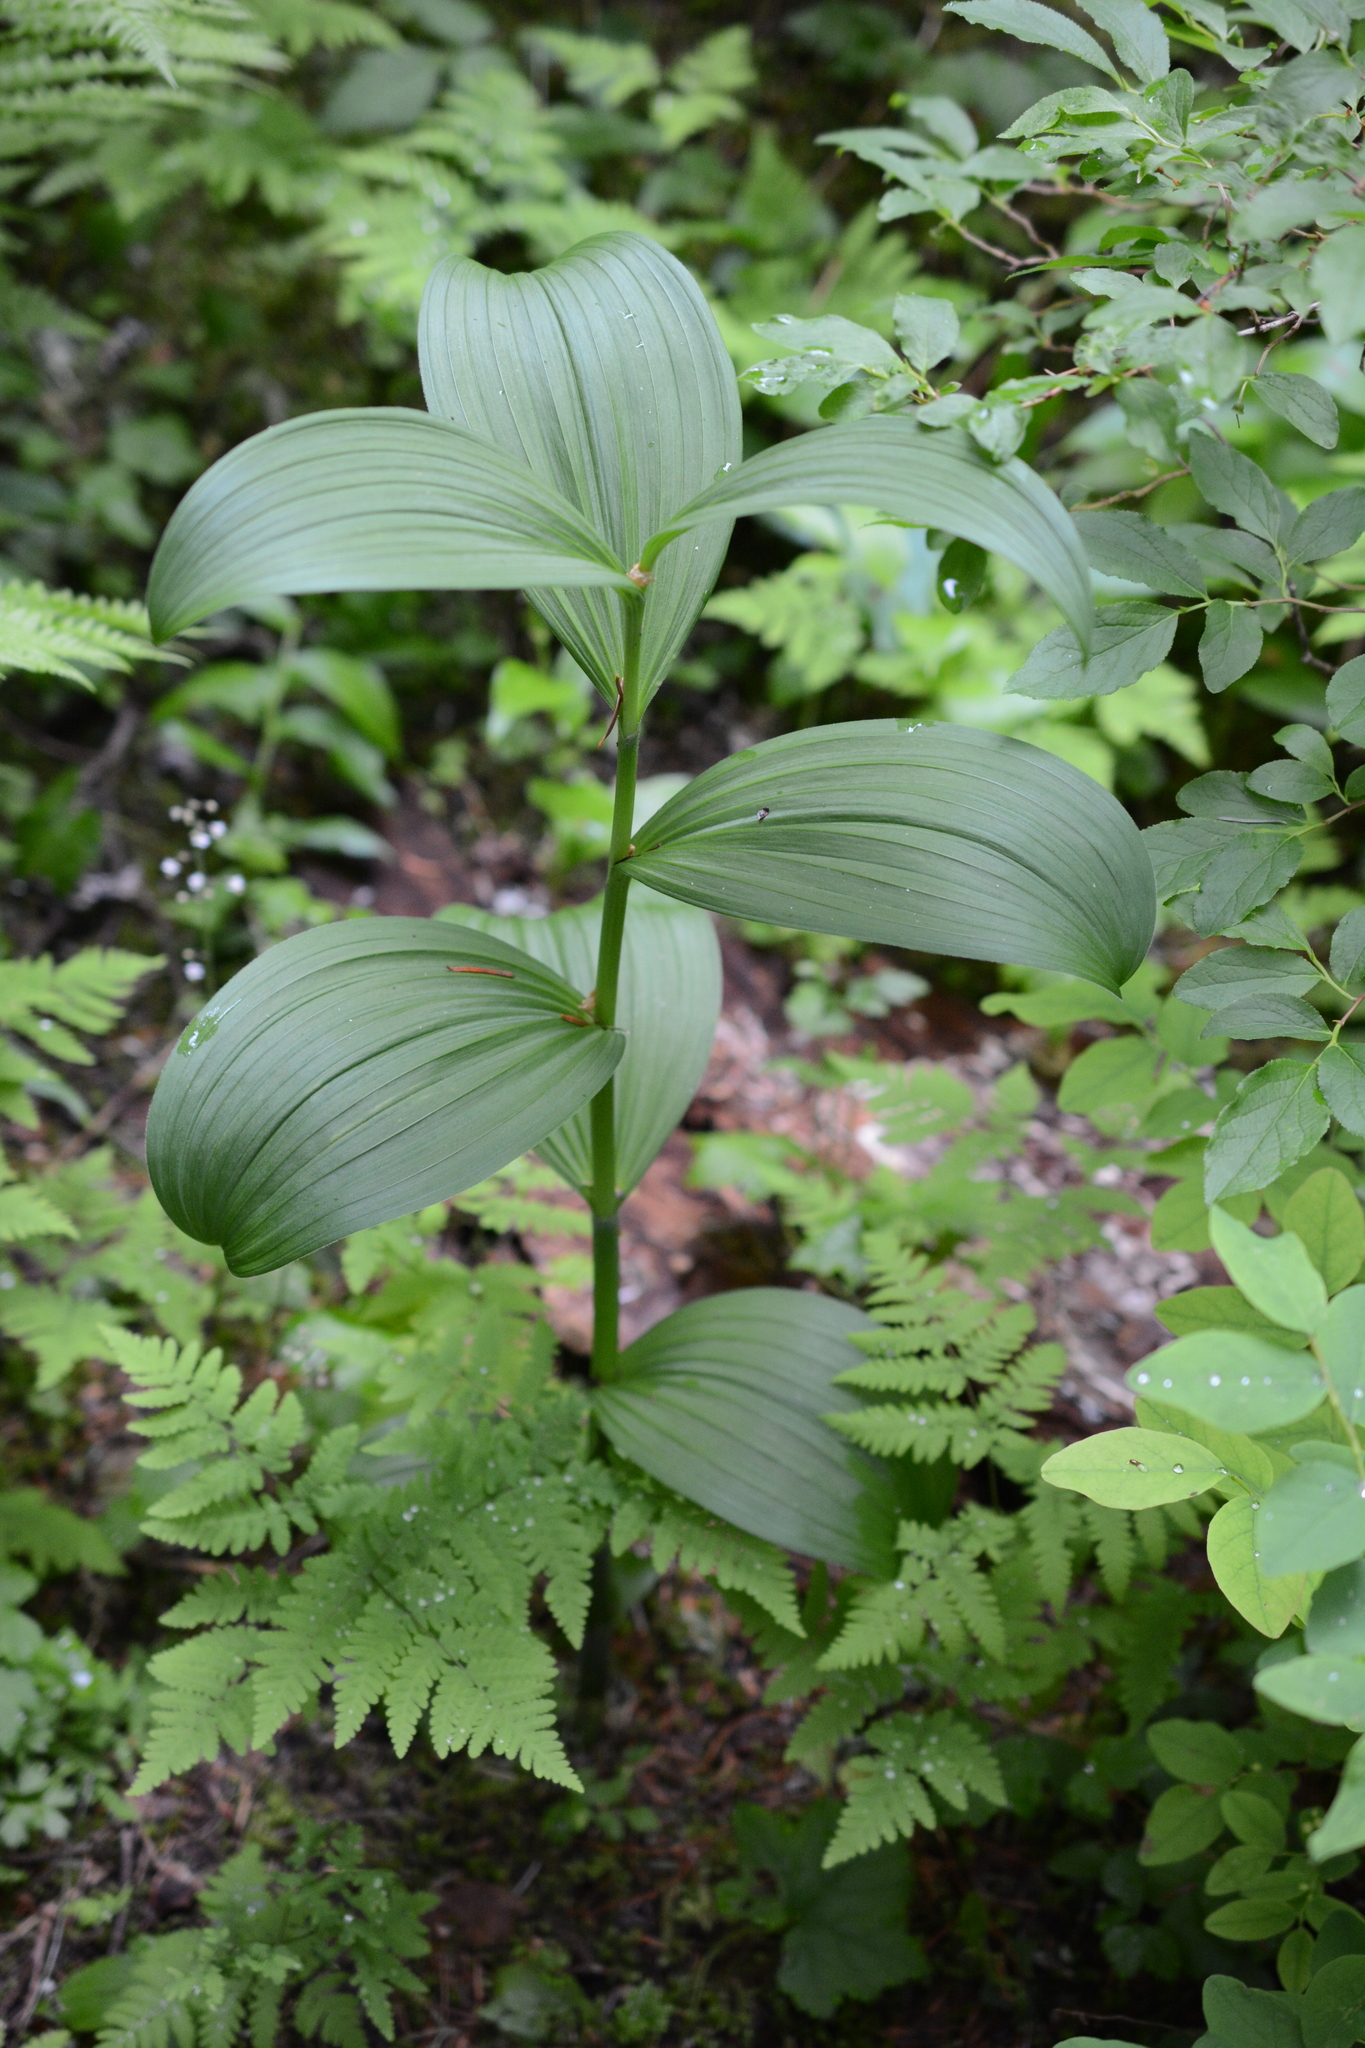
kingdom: Plantae
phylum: Tracheophyta
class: Liliopsida
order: Liliales
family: Melanthiaceae
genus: Veratrum
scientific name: Veratrum viride
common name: American false hellebore
